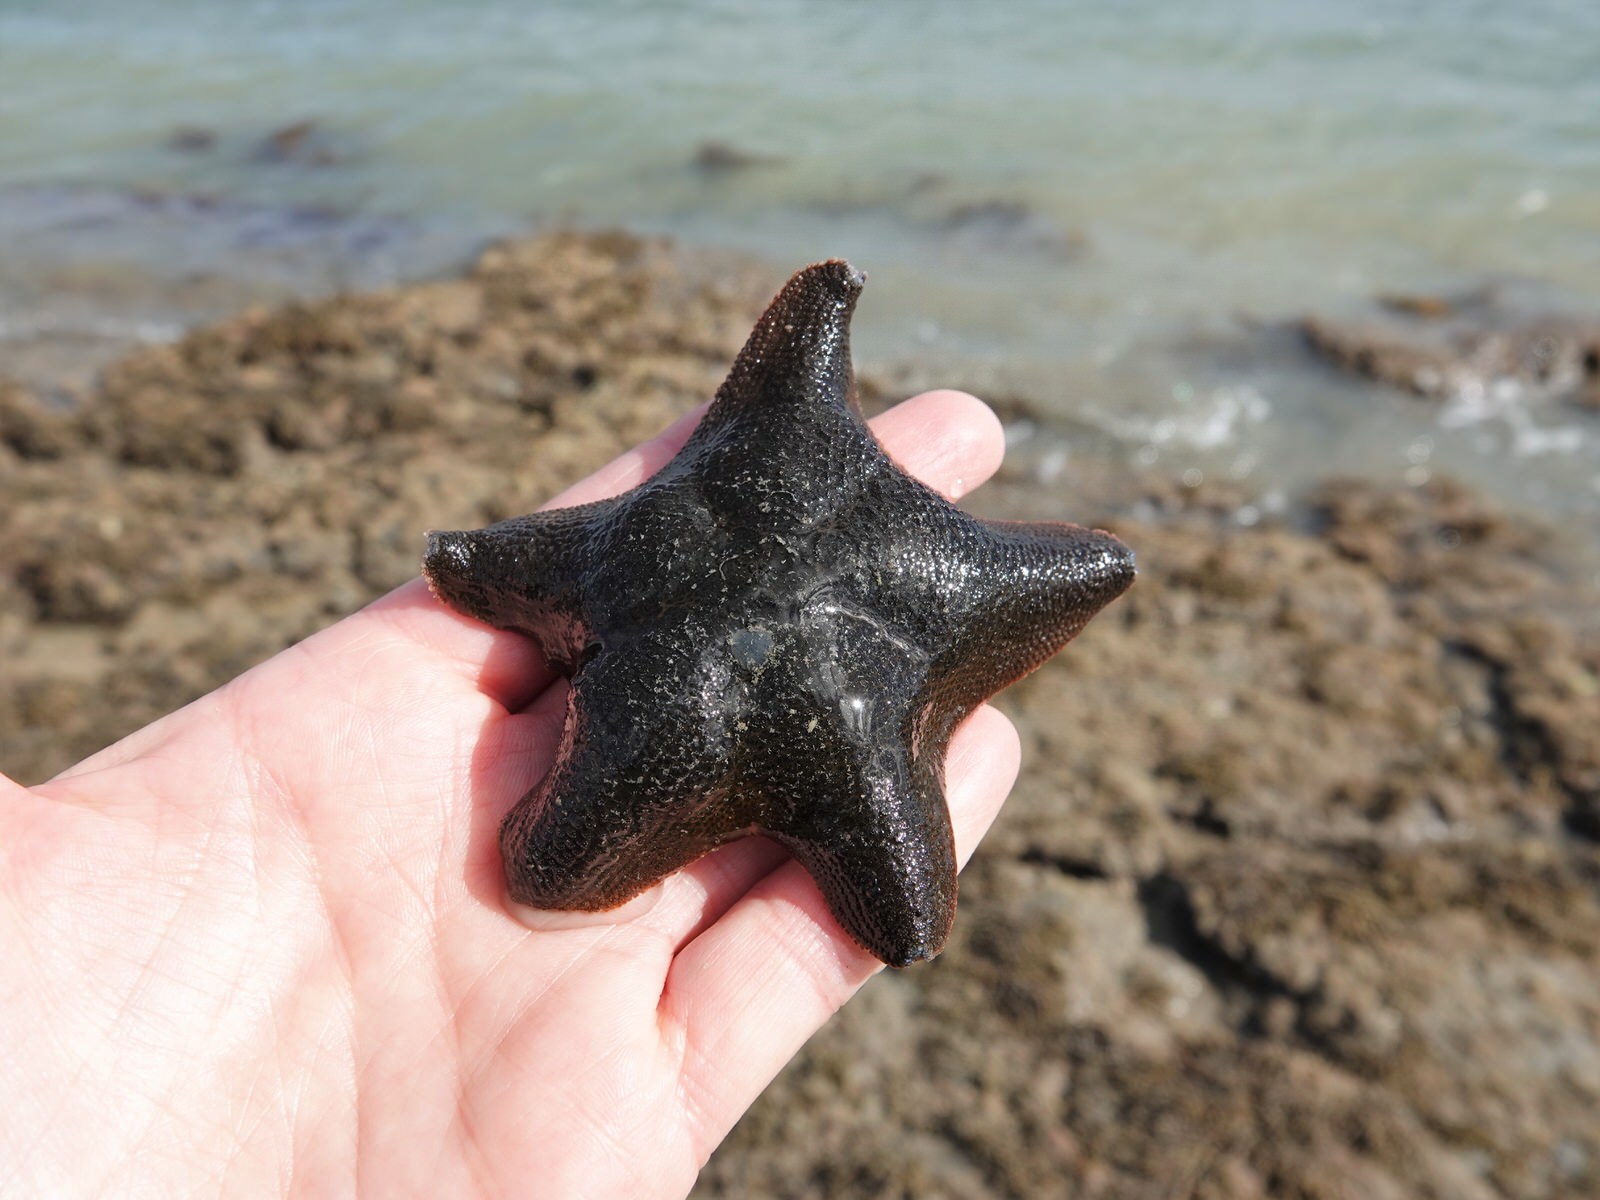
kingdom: Animalia
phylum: Echinodermata
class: Asteroidea
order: Valvatida
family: Asterinidae
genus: Patiriella
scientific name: Patiriella regularis
